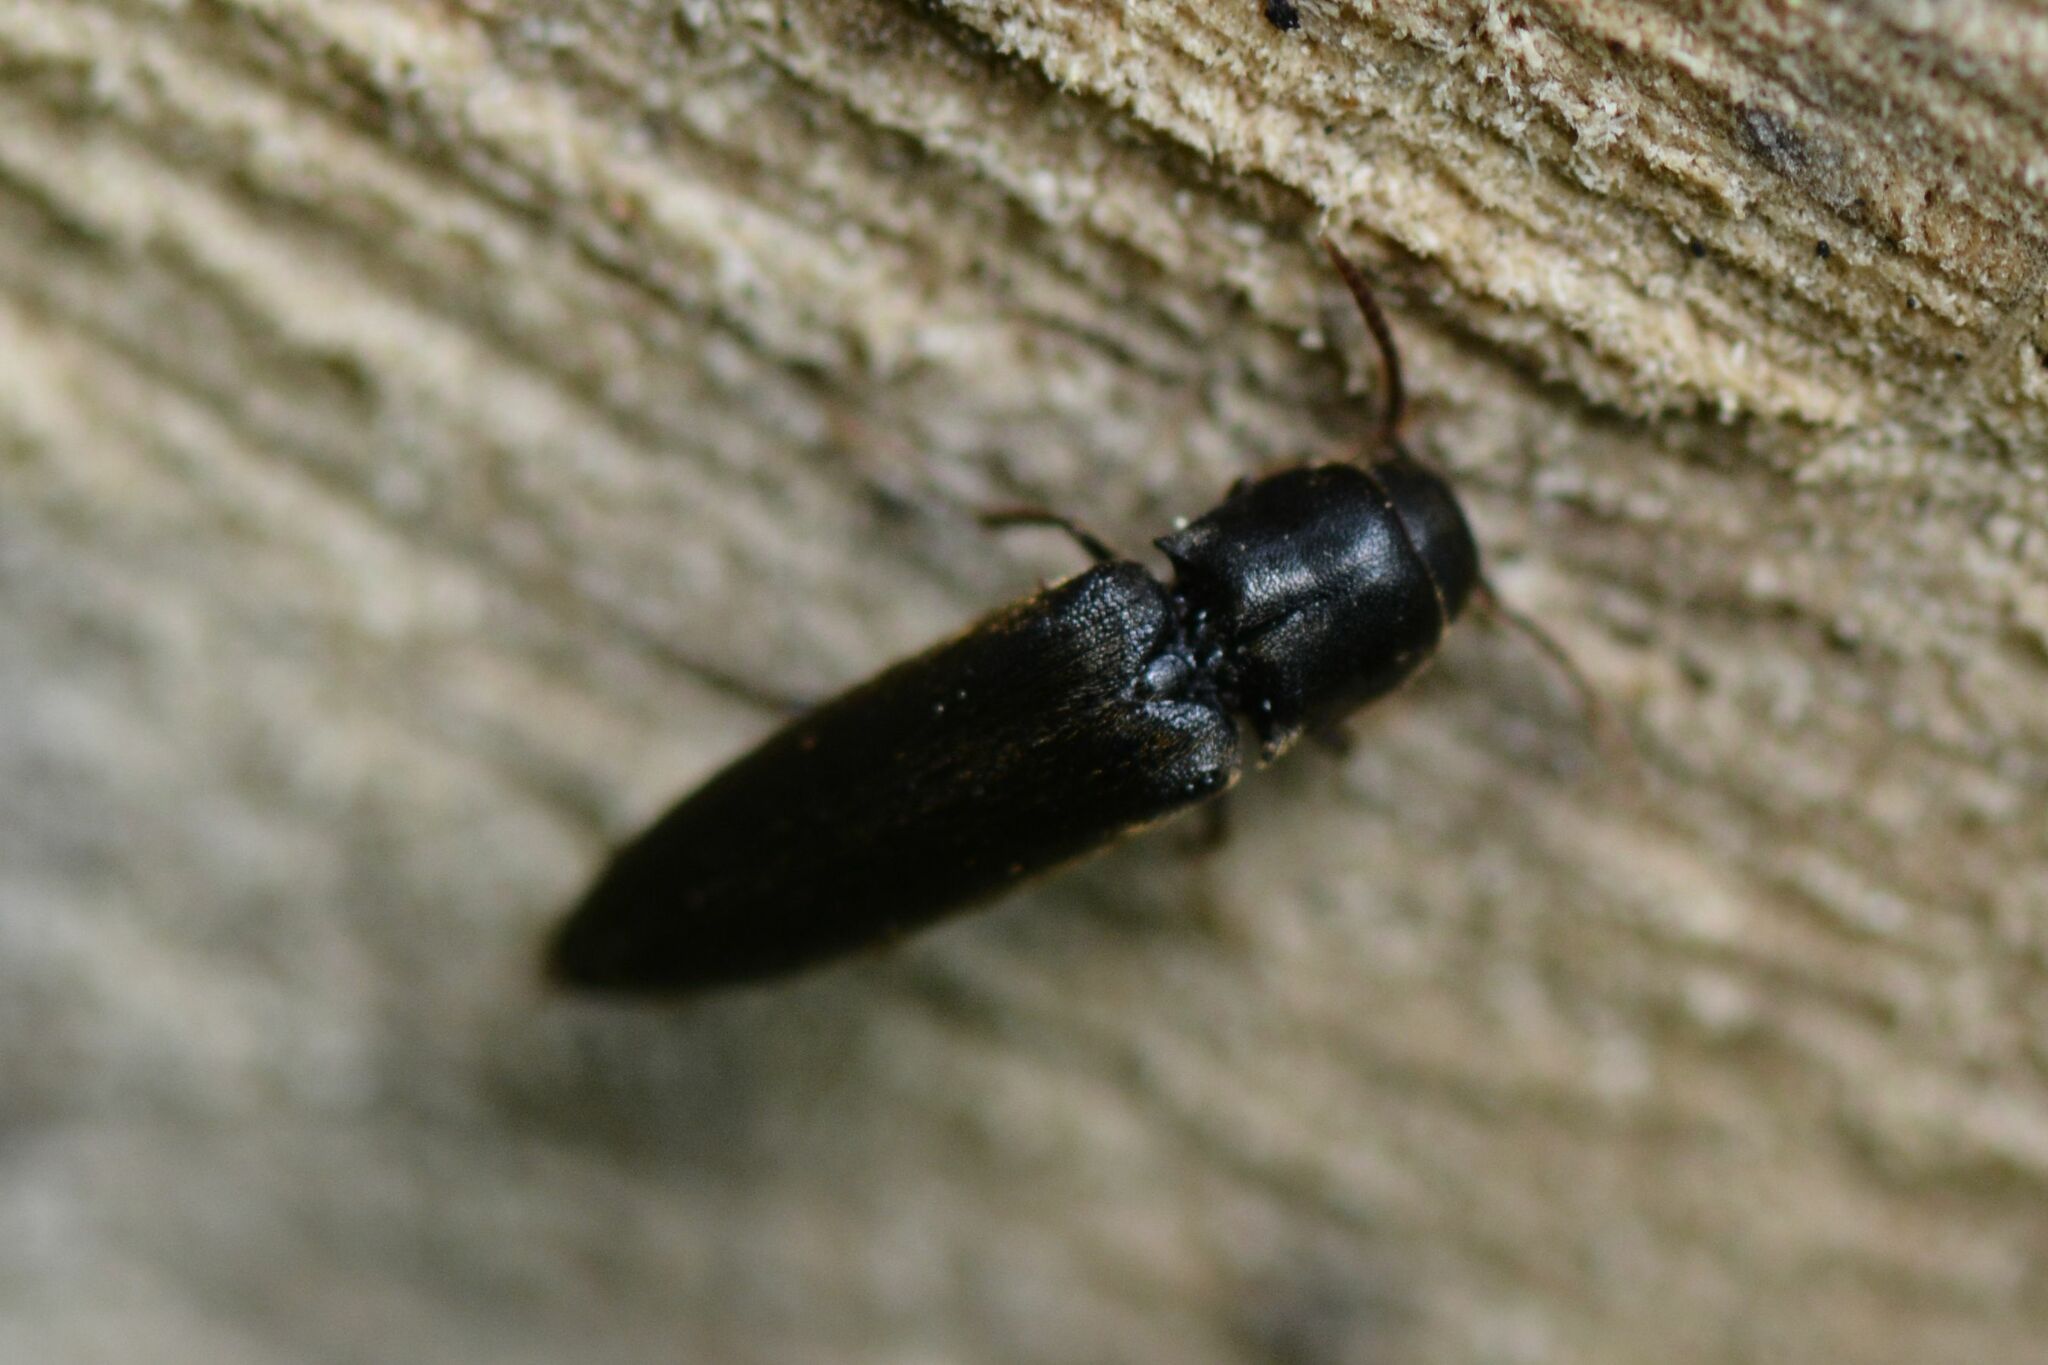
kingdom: Animalia
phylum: Arthropoda
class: Insecta
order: Coleoptera
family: Eucnemidae
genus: Isorhipis
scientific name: Isorhipis melasoides
